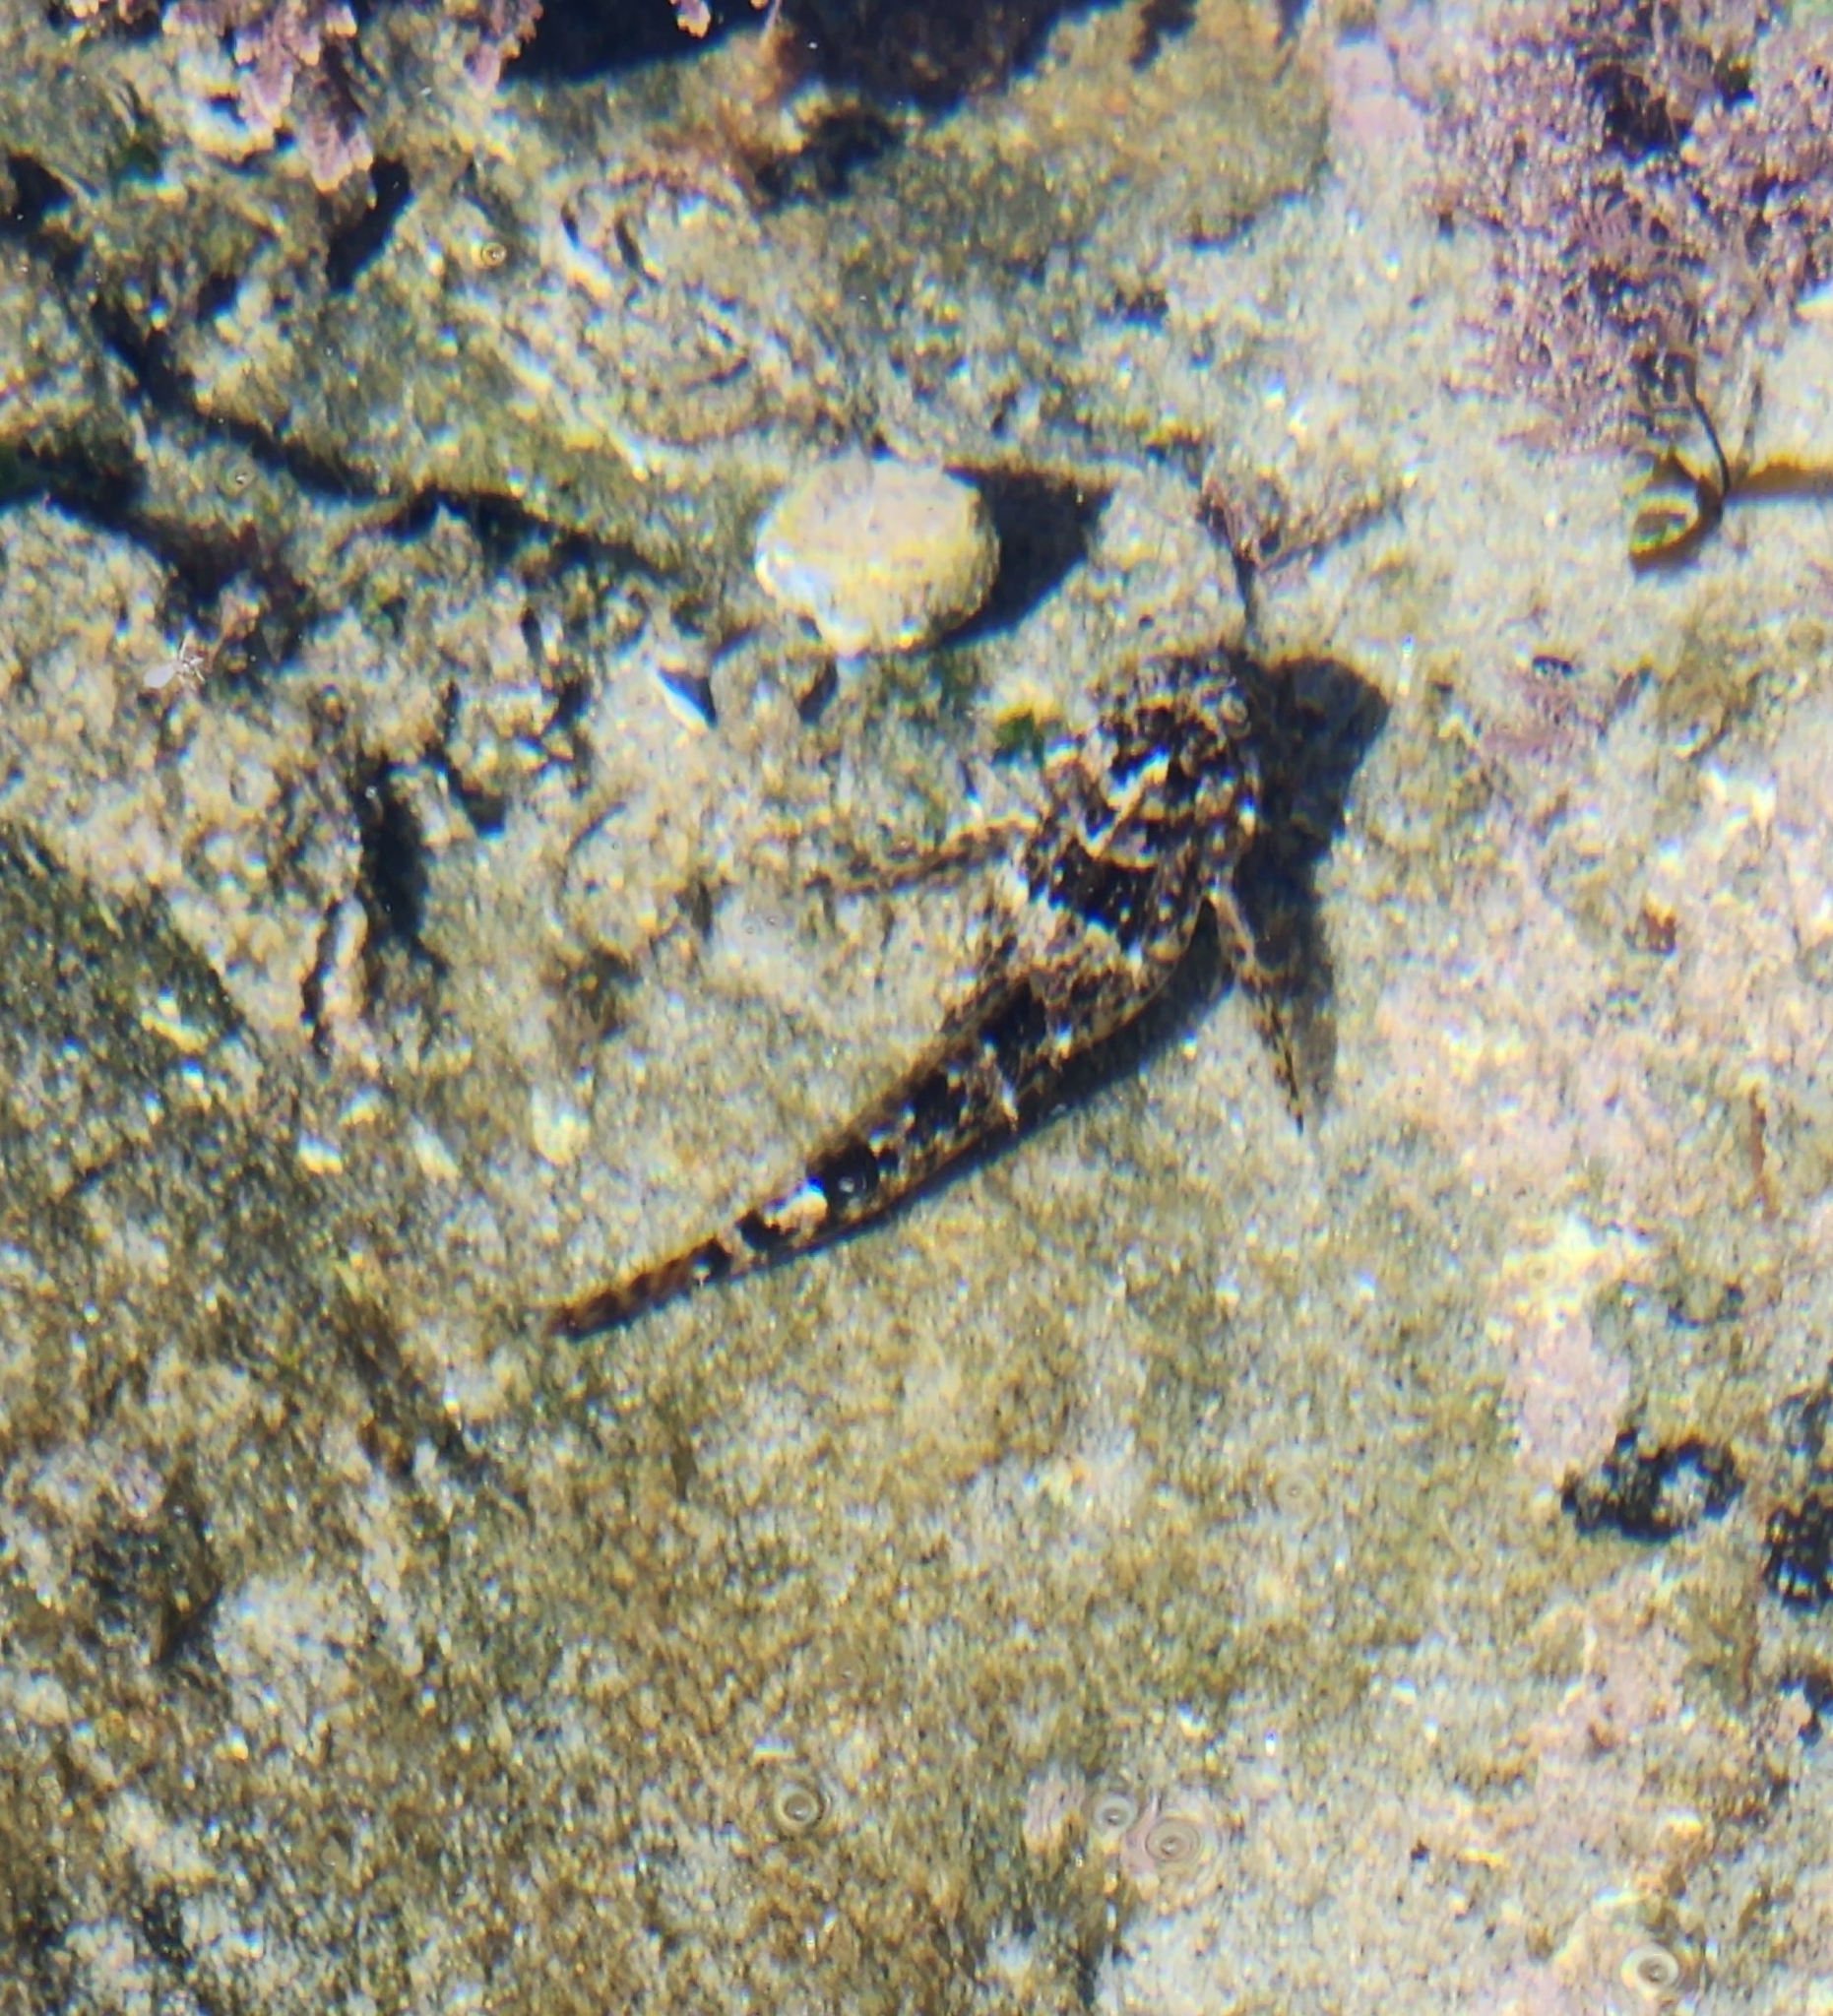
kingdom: Animalia
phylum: Chordata
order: Scorpaeniformes
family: Cottidae
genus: Clinocottus
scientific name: Clinocottus analis
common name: Woolly sculpin
